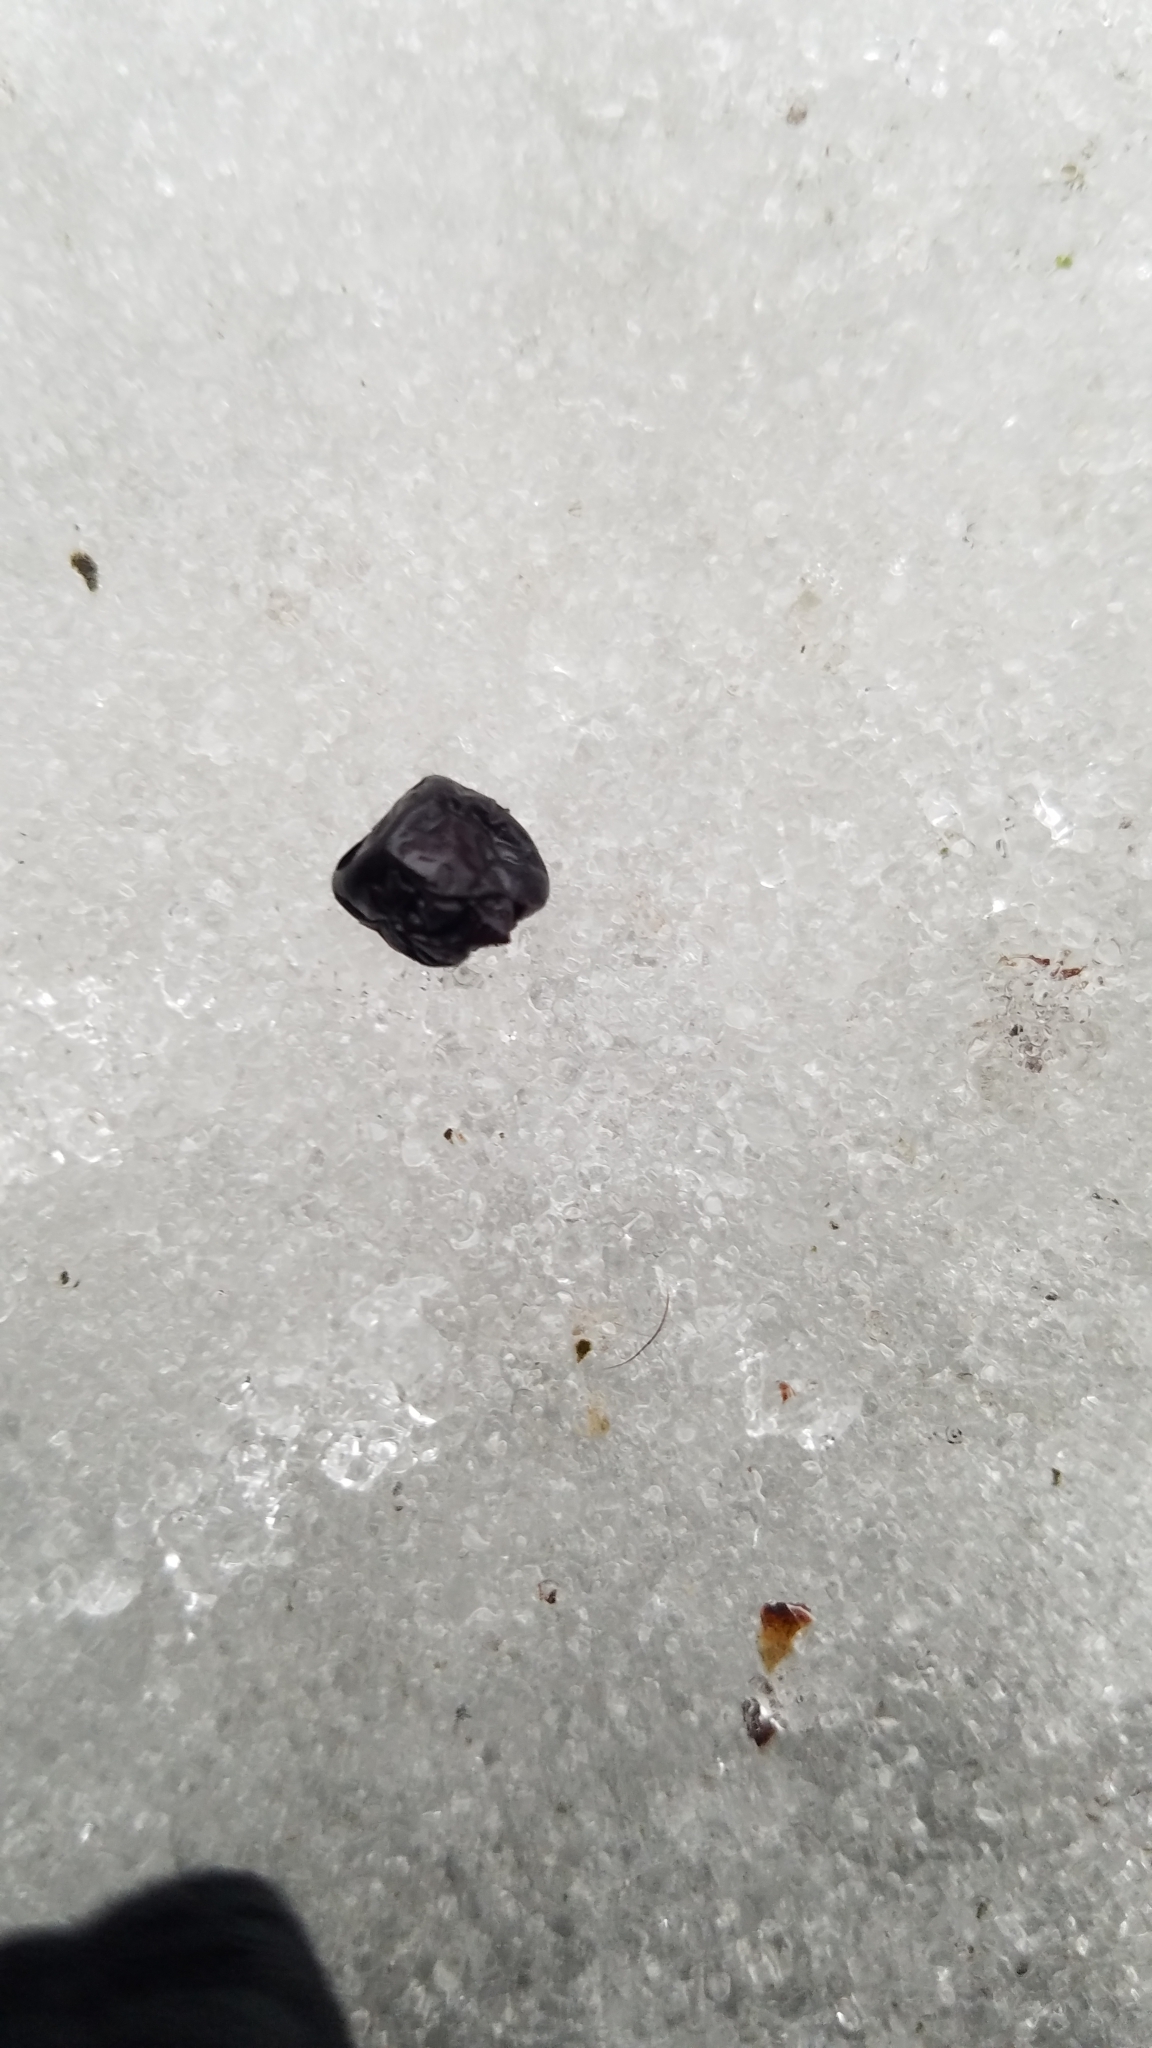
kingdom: Plantae
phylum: Tracheophyta
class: Magnoliopsida
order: Ericales
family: Ericaceae
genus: Vaccinium
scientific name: Vaccinium myrtillus
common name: Bilberry
